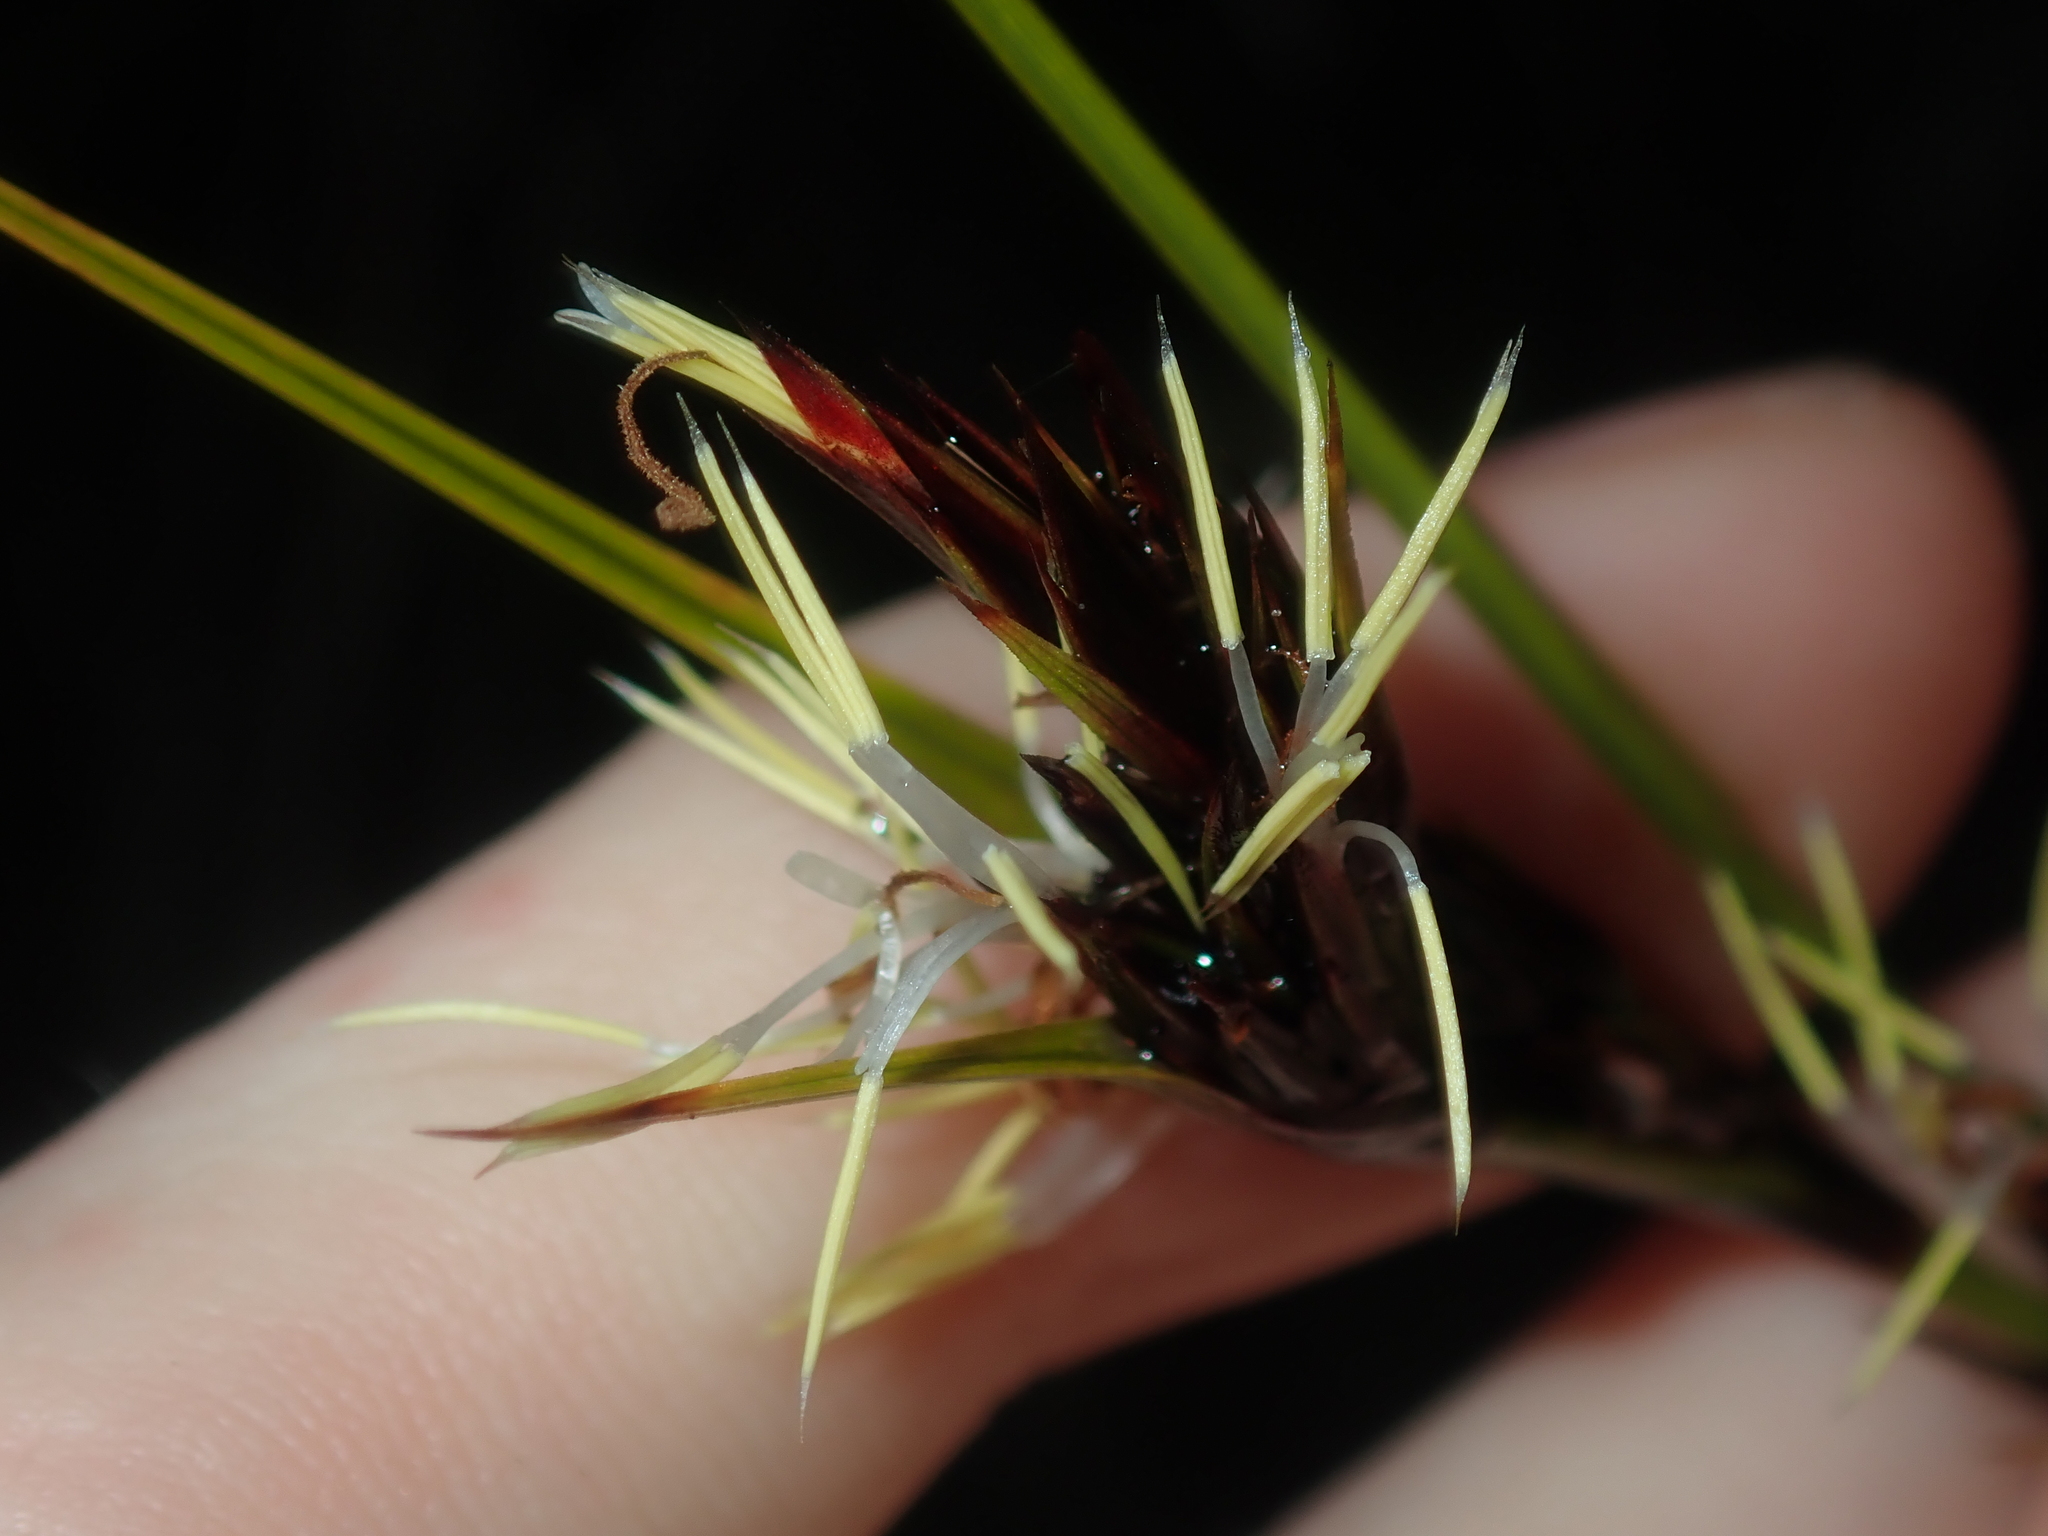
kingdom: Plantae
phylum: Tracheophyta
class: Liliopsida
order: Poales
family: Cyperaceae
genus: Morelotia
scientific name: Morelotia
